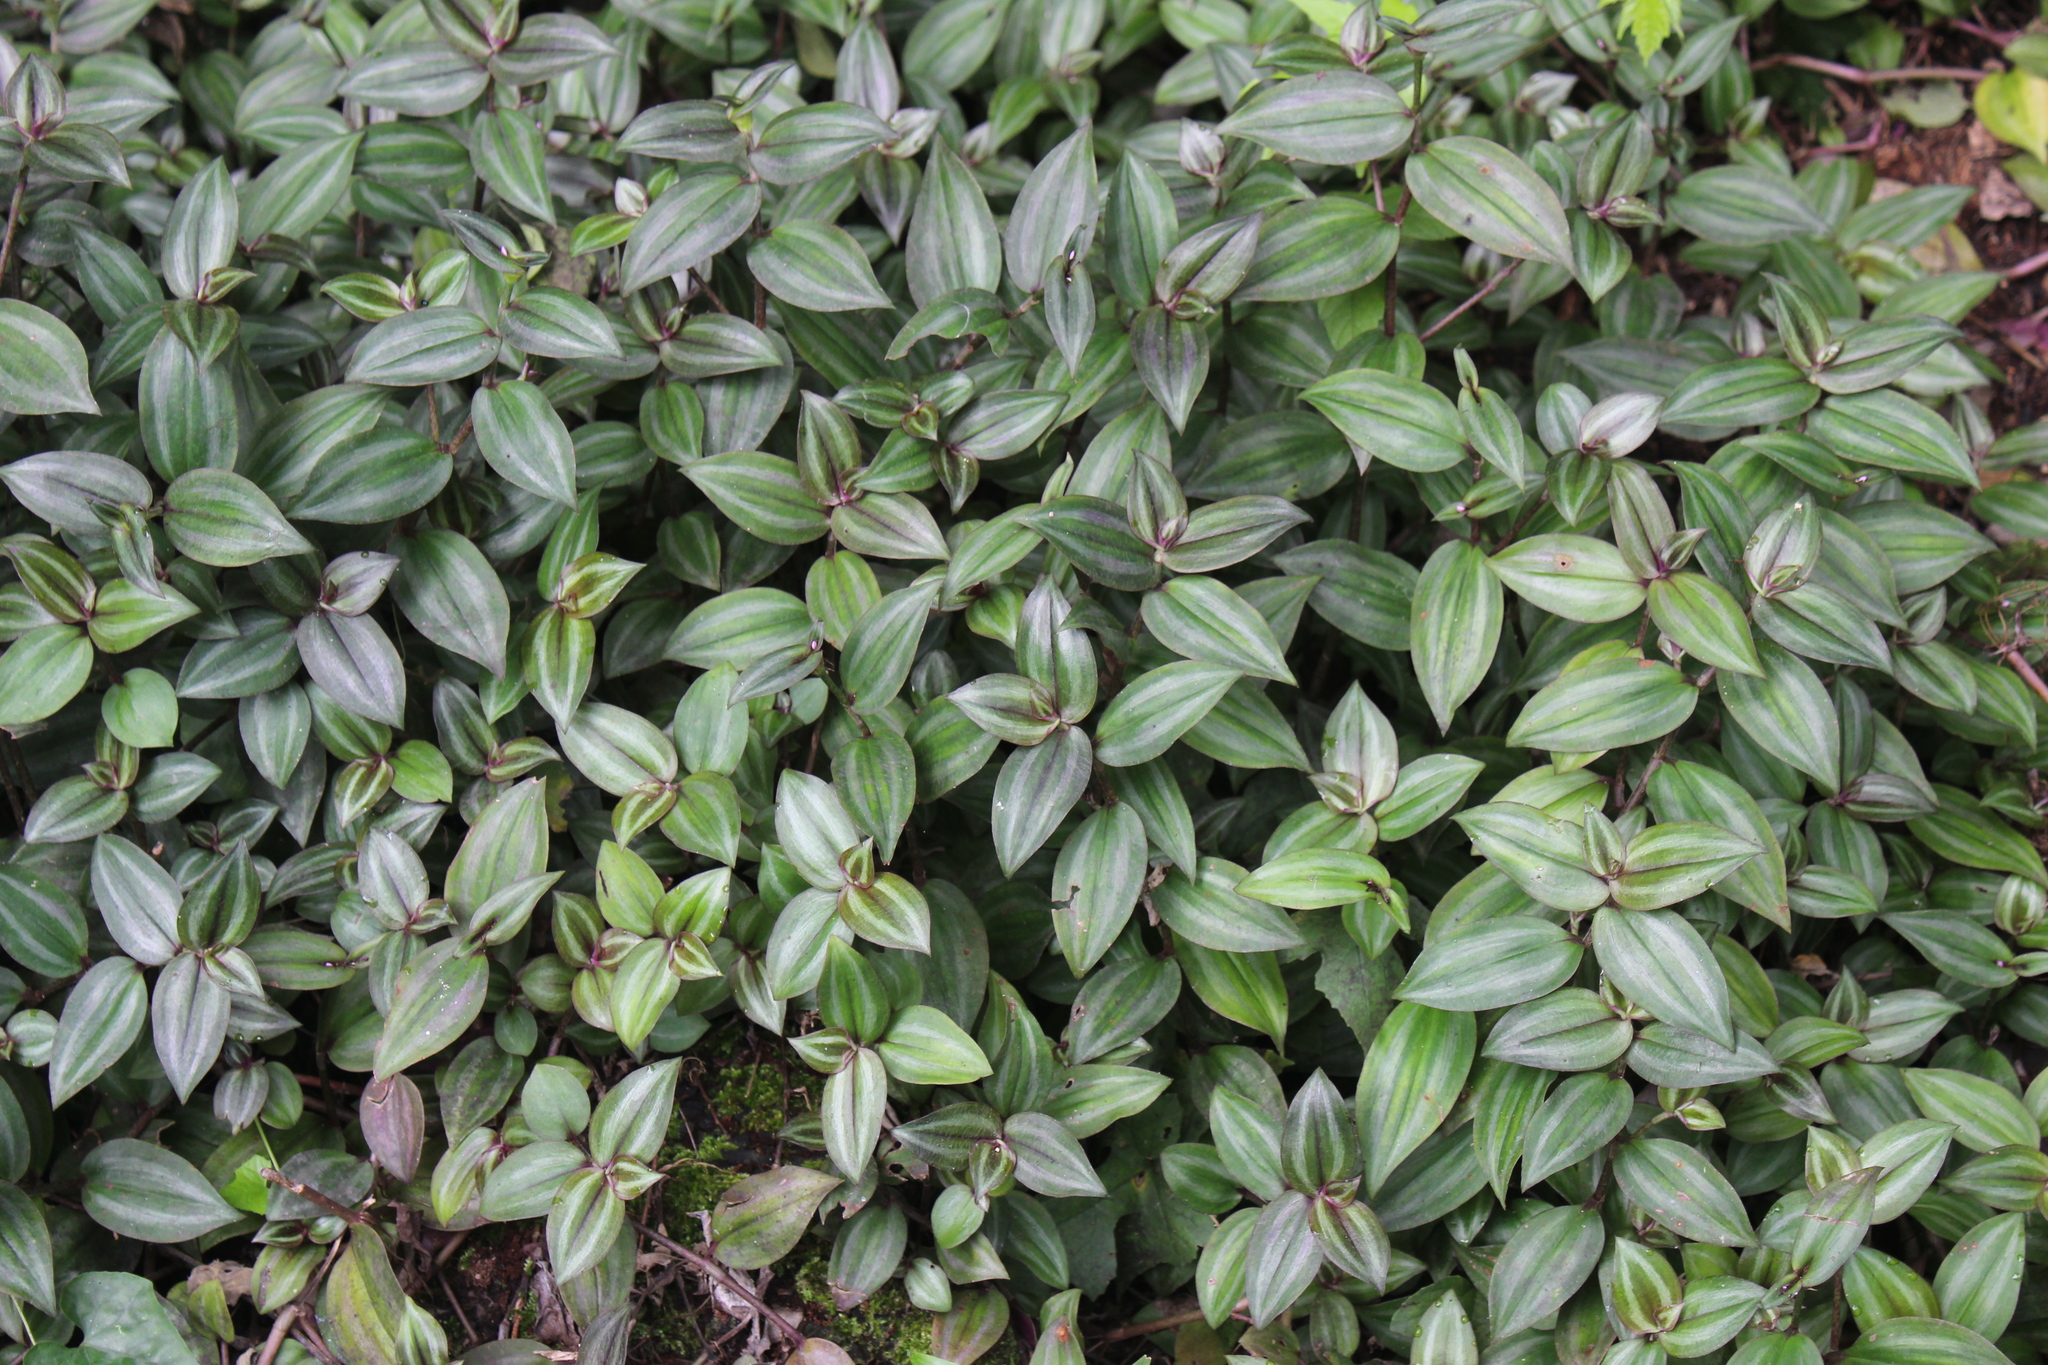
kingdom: Plantae
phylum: Tracheophyta
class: Liliopsida
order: Commelinales
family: Commelinaceae
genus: Tradescantia
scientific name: Tradescantia zebrina
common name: Inchplant
